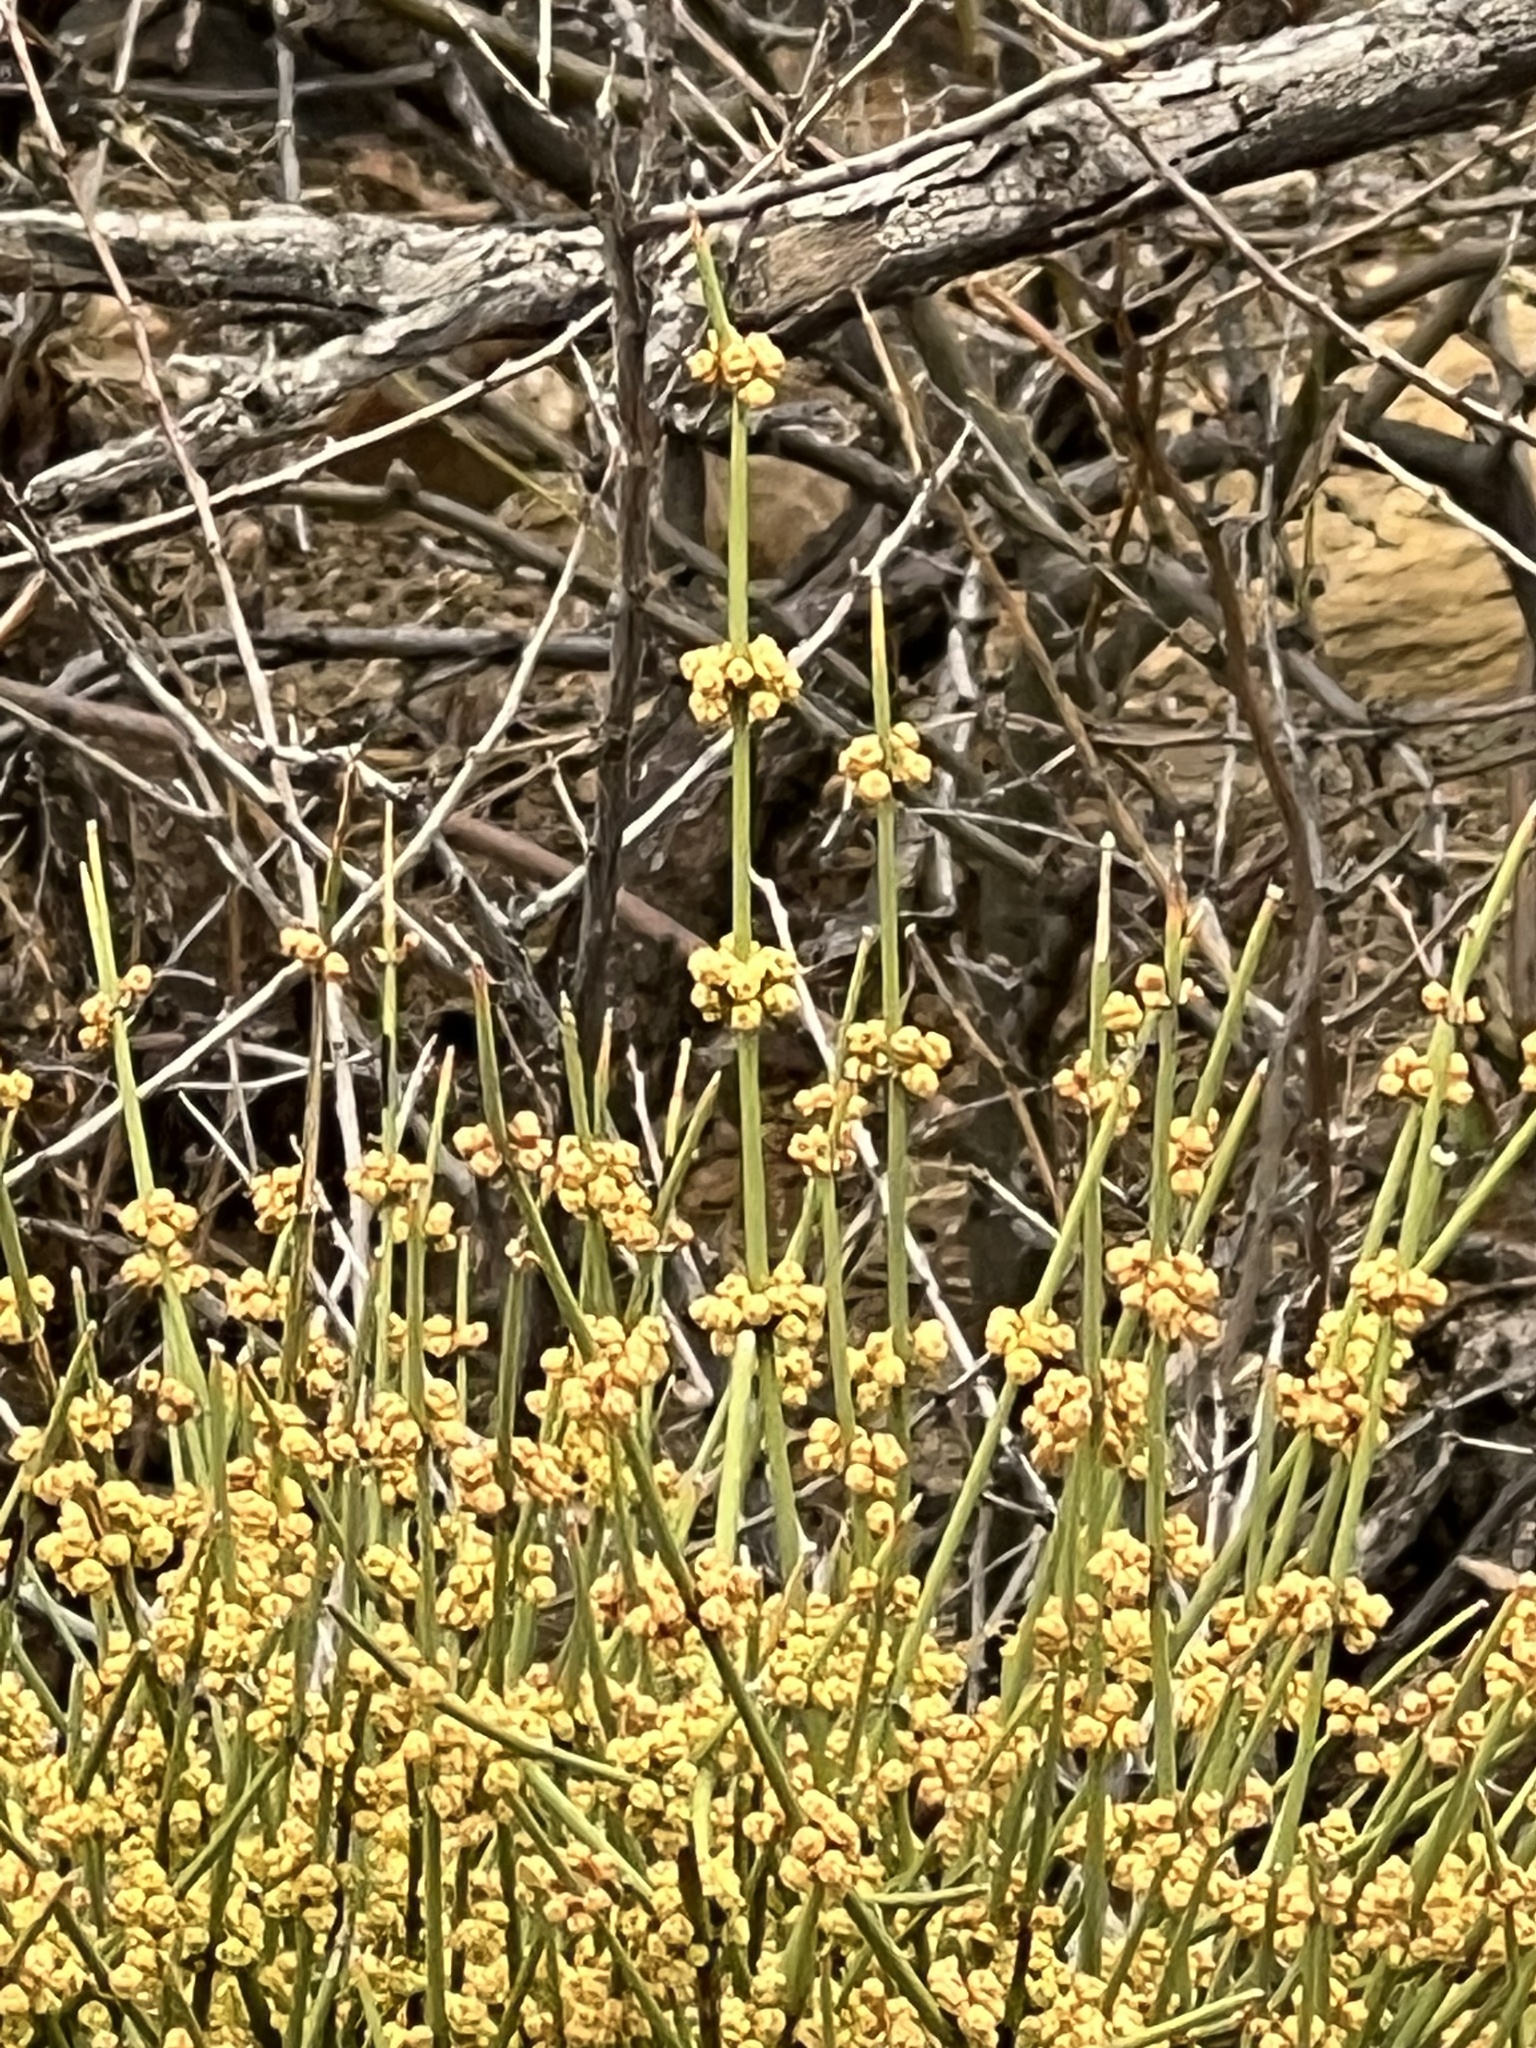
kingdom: Plantae
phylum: Tracheophyta
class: Gnetopsida
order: Ephedrales
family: Ephedraceae
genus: Ephedra
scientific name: Ephedra aspera
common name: Boundary ephedra
